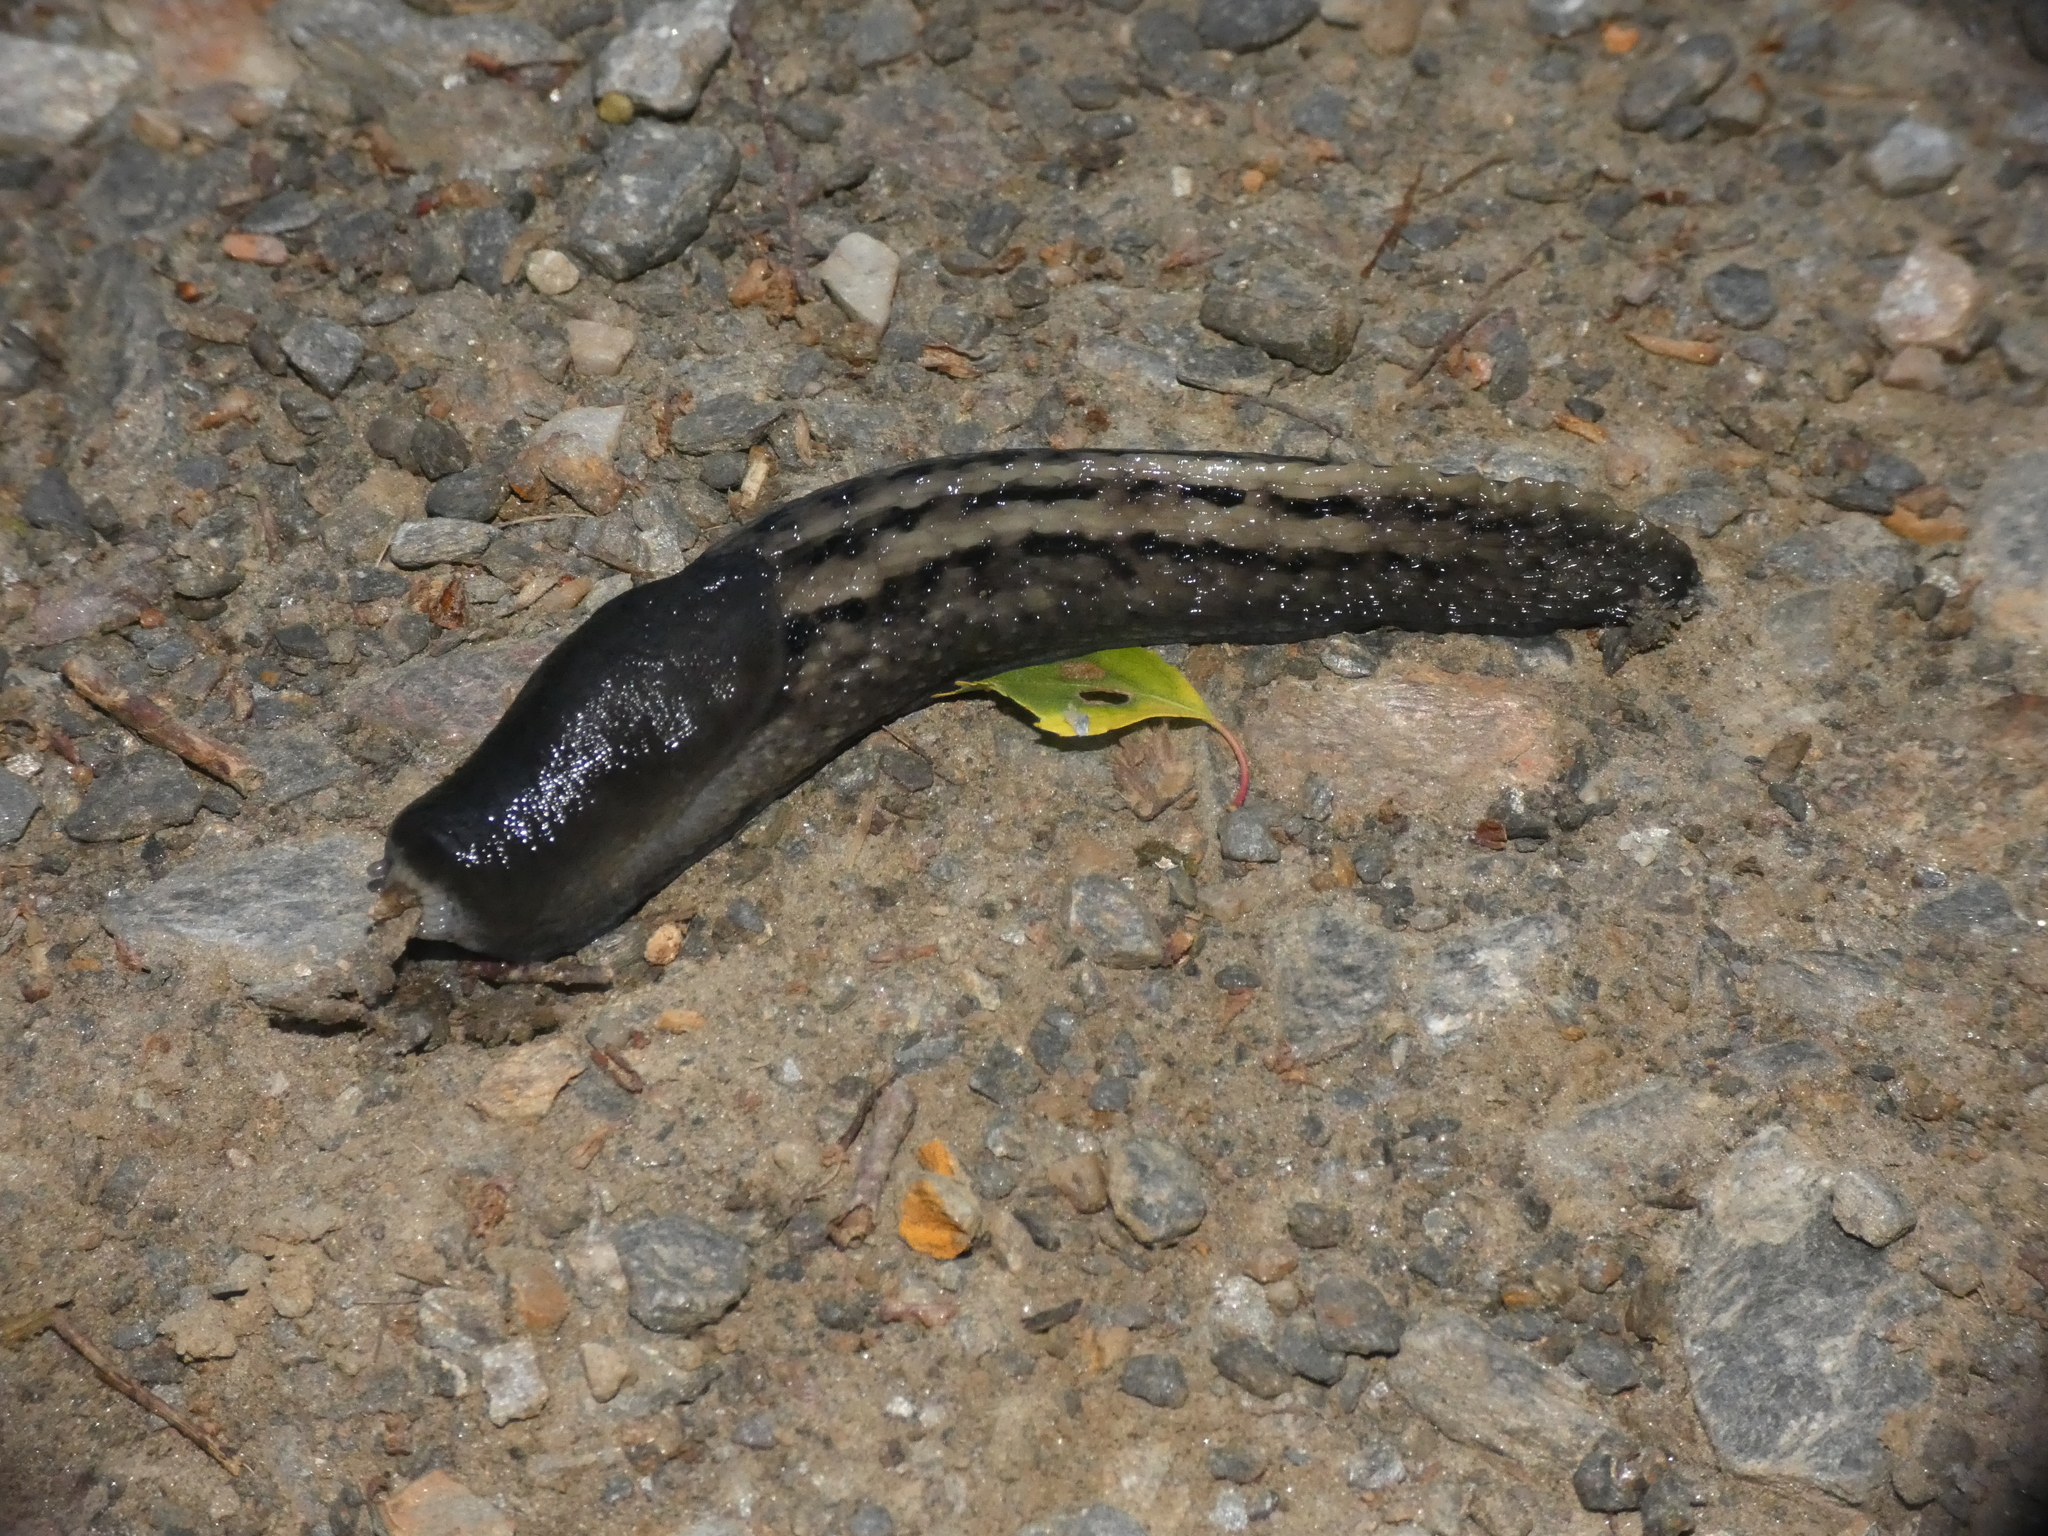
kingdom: Animalia
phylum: Mollusca
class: Gastropoda
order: Stylommatophora
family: Limacidae
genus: Limax
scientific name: Limax cinereoniger
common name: Ash-black slug
